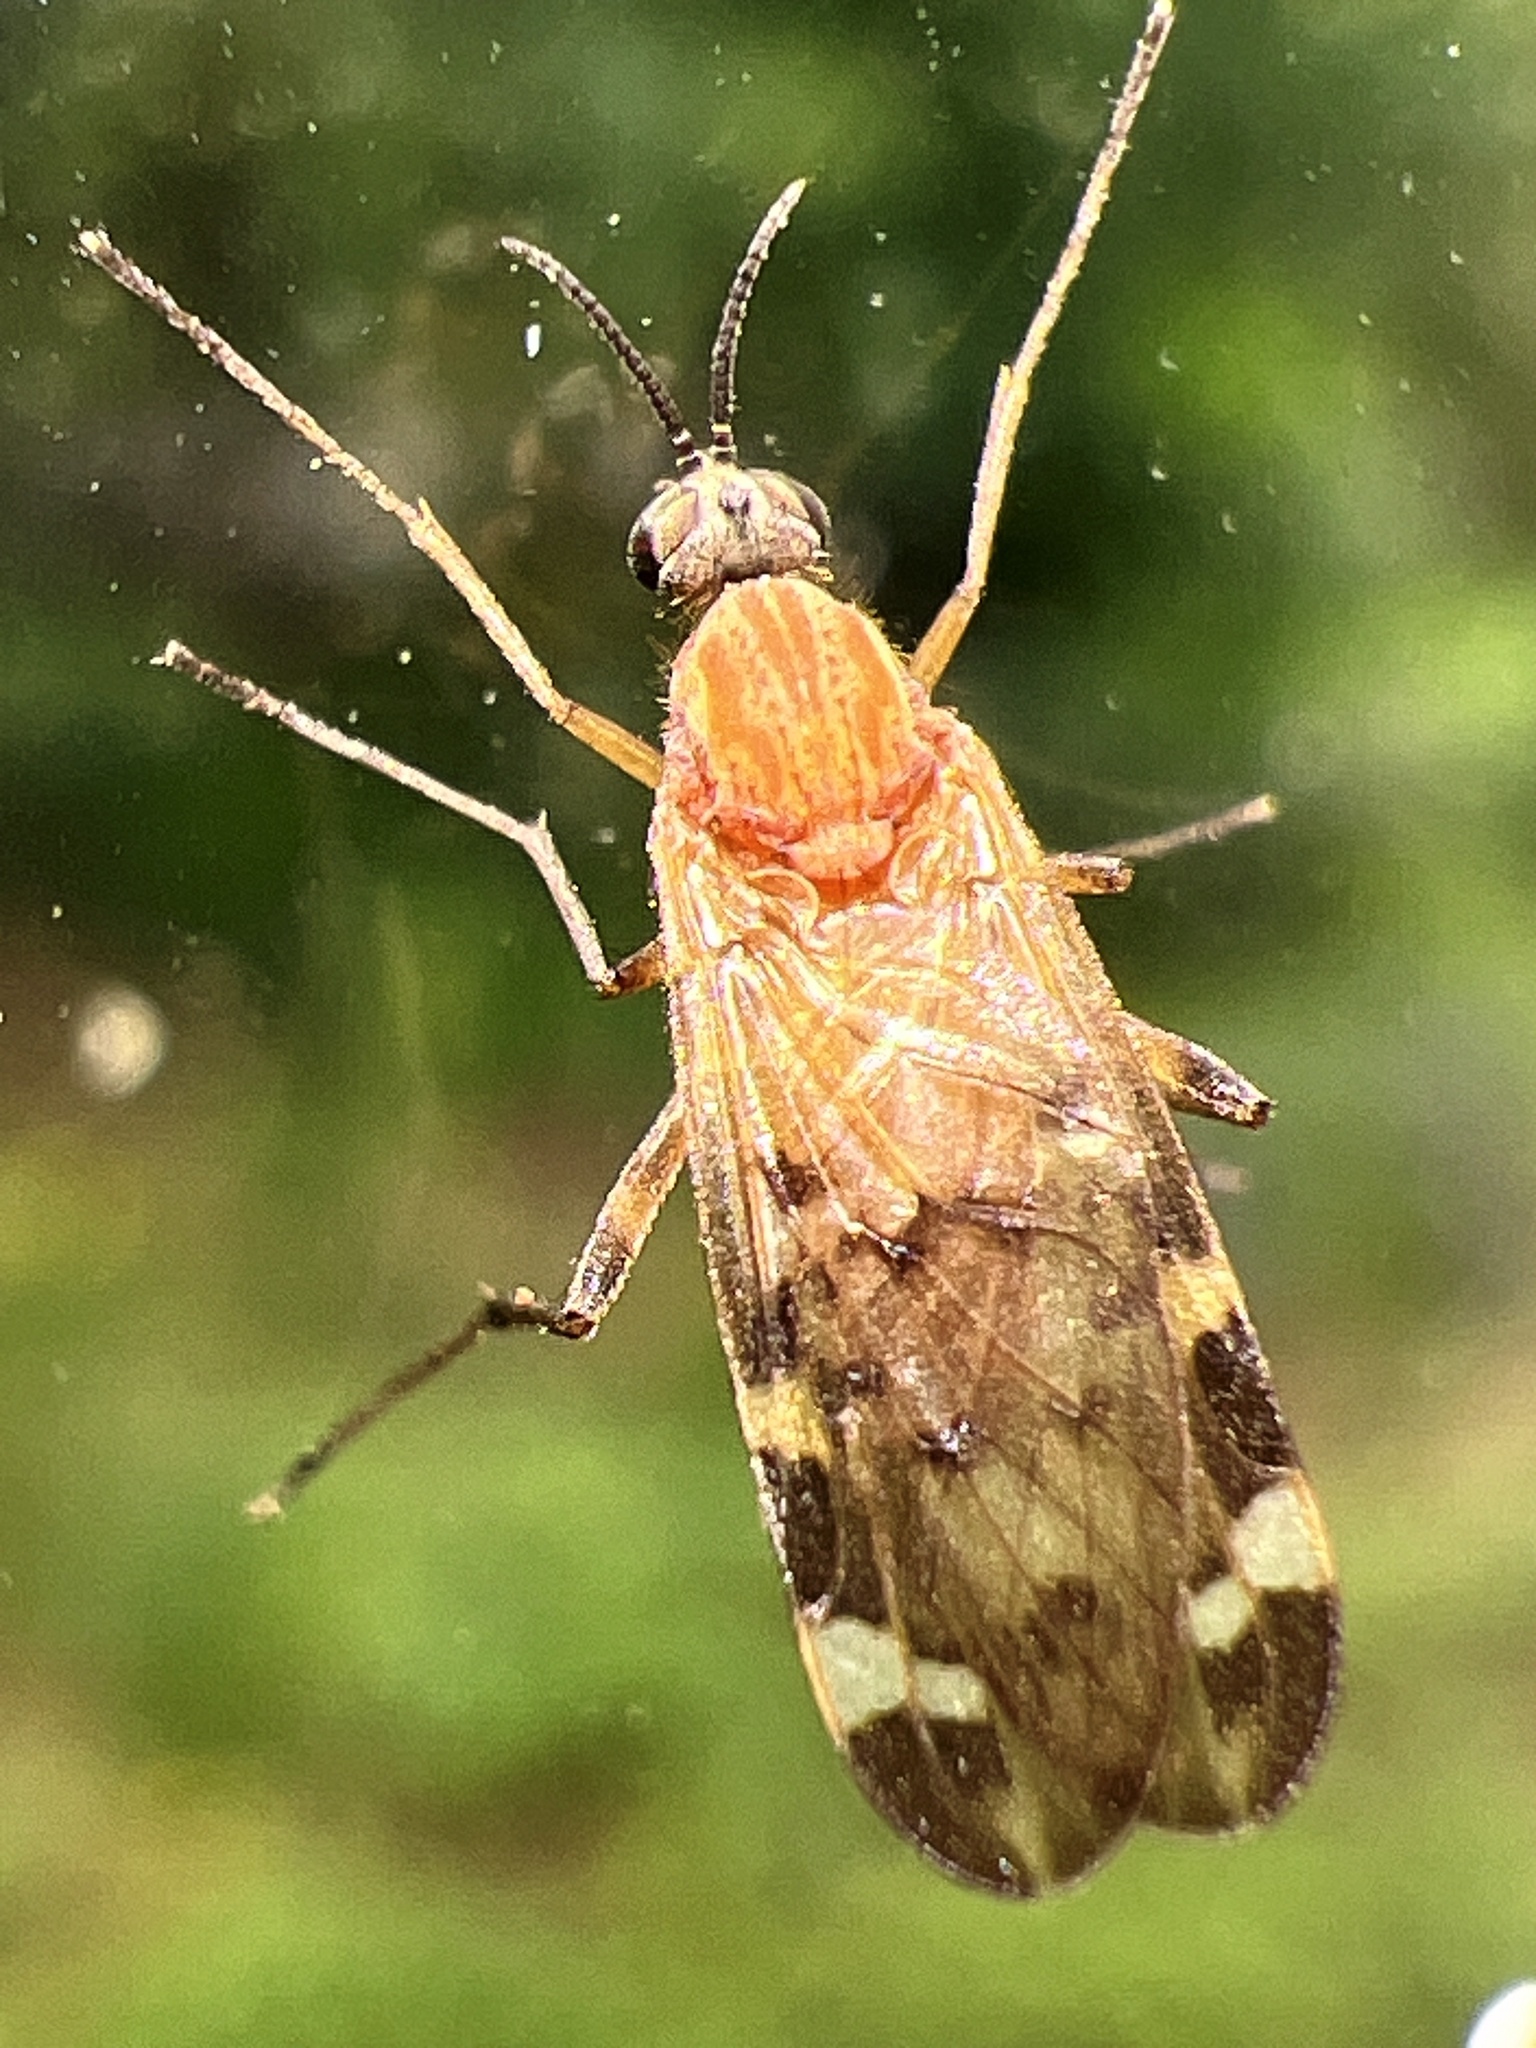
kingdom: Animalia
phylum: Arthropoda
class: Insecta
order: Diptera
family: Anisopodidae
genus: Sylvicola
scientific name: Sylvicola alternata
